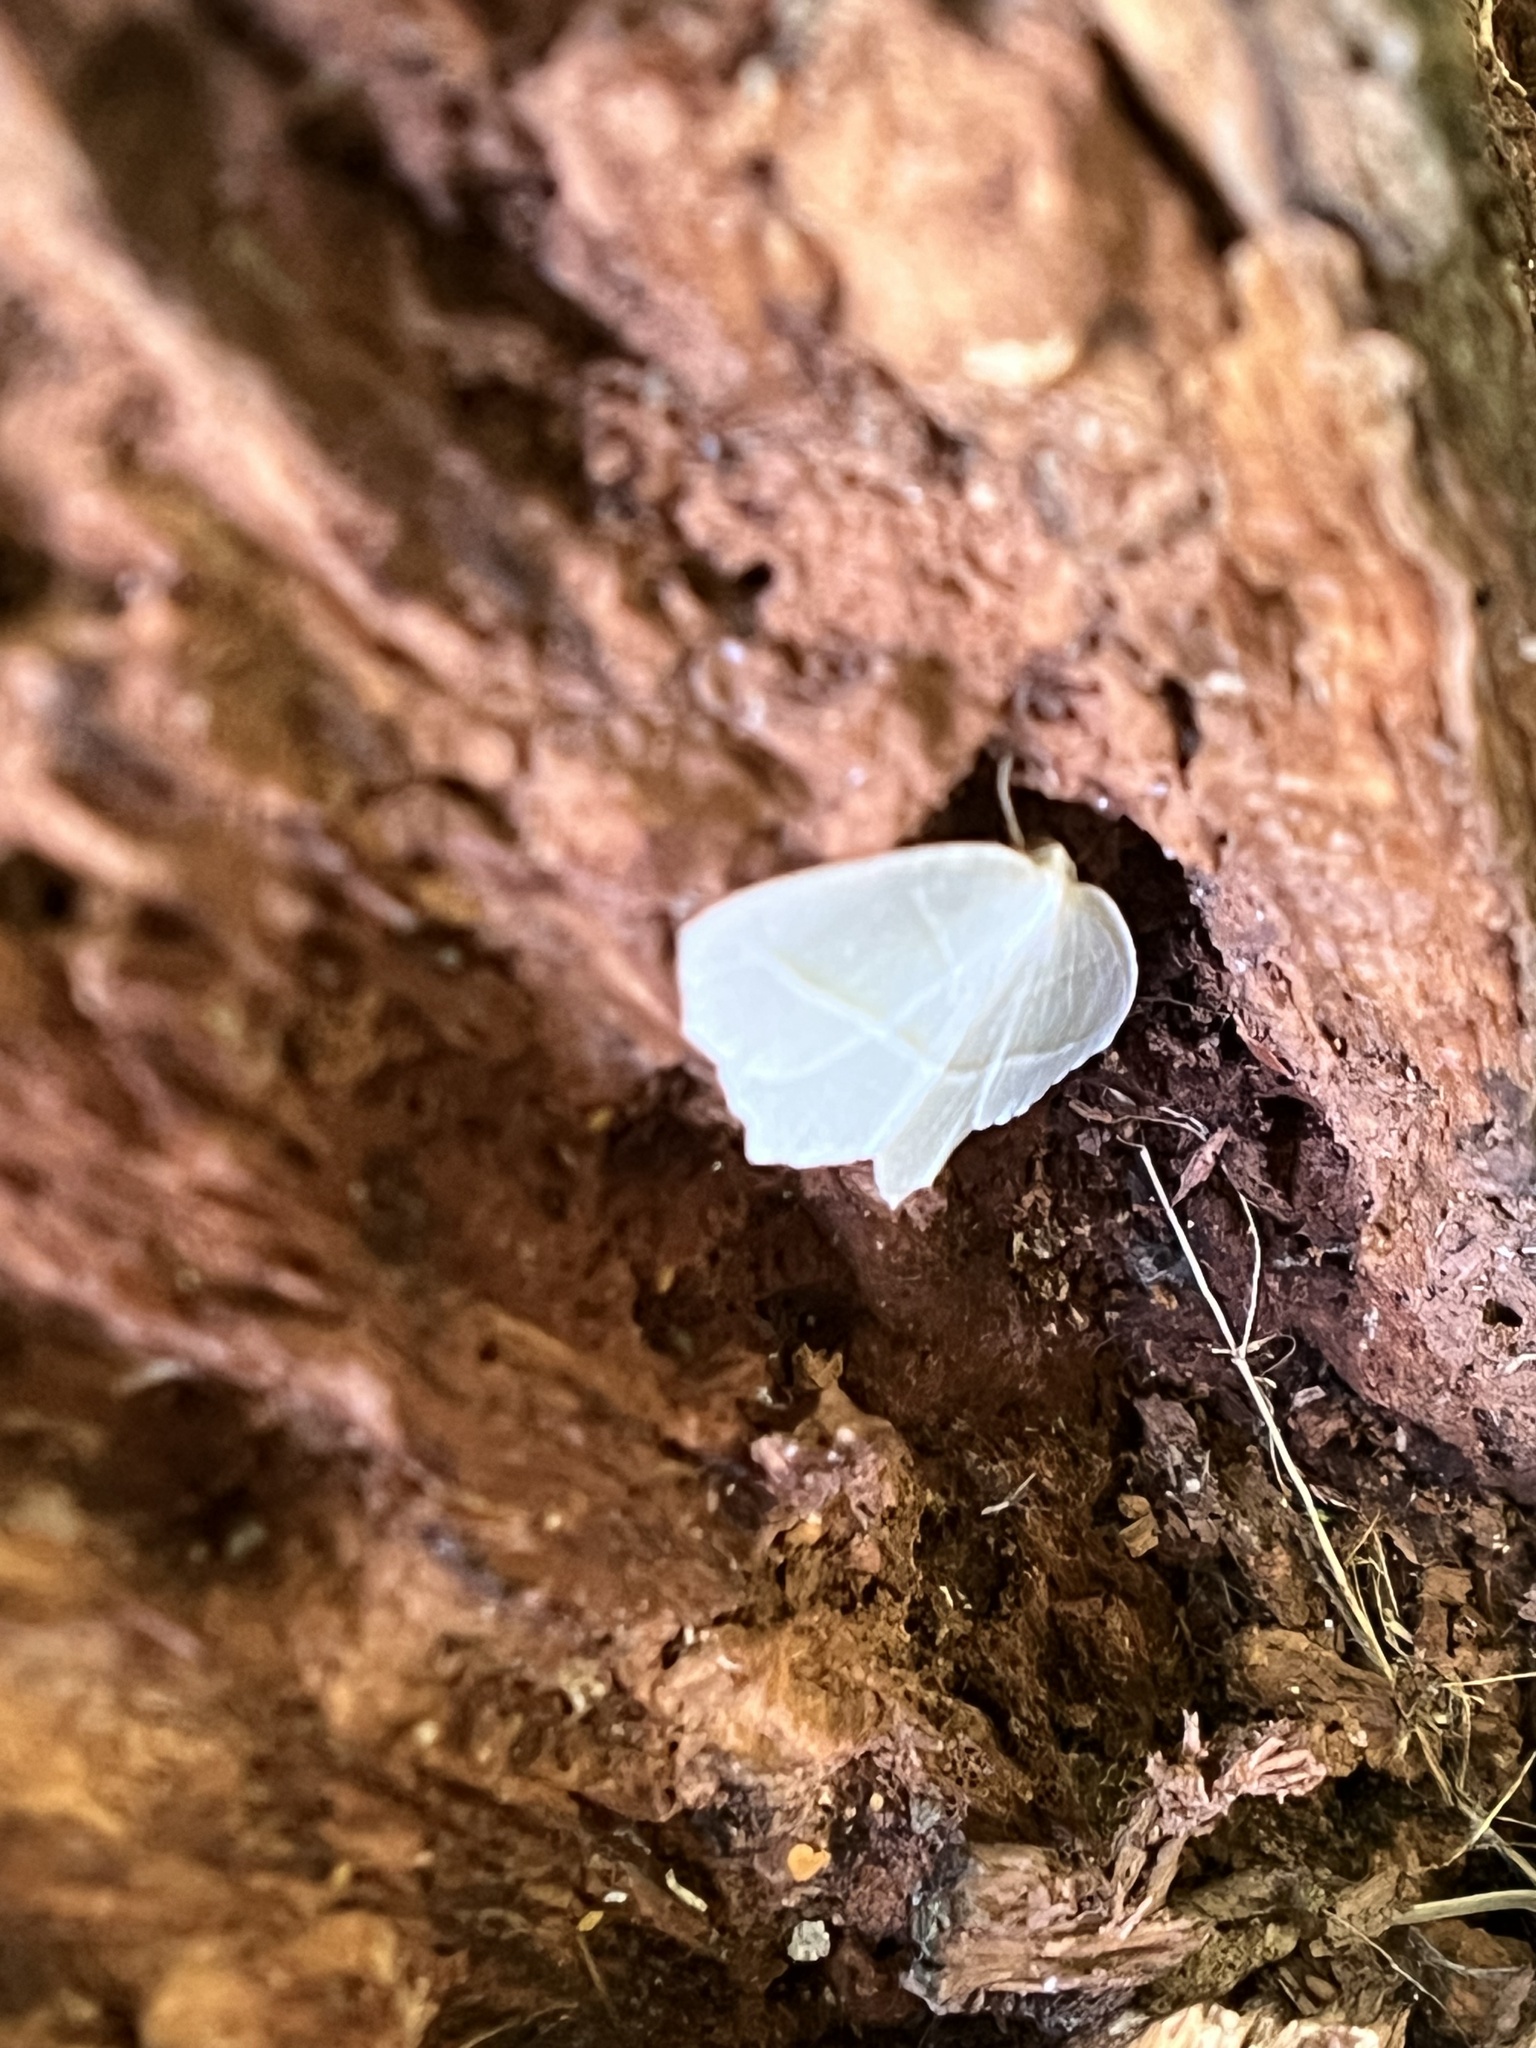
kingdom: Animalia
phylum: Arthropoda
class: Insecta
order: Lepidoptera
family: Geometridae
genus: Campaea
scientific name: Campaea perlata
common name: Fringed looper
